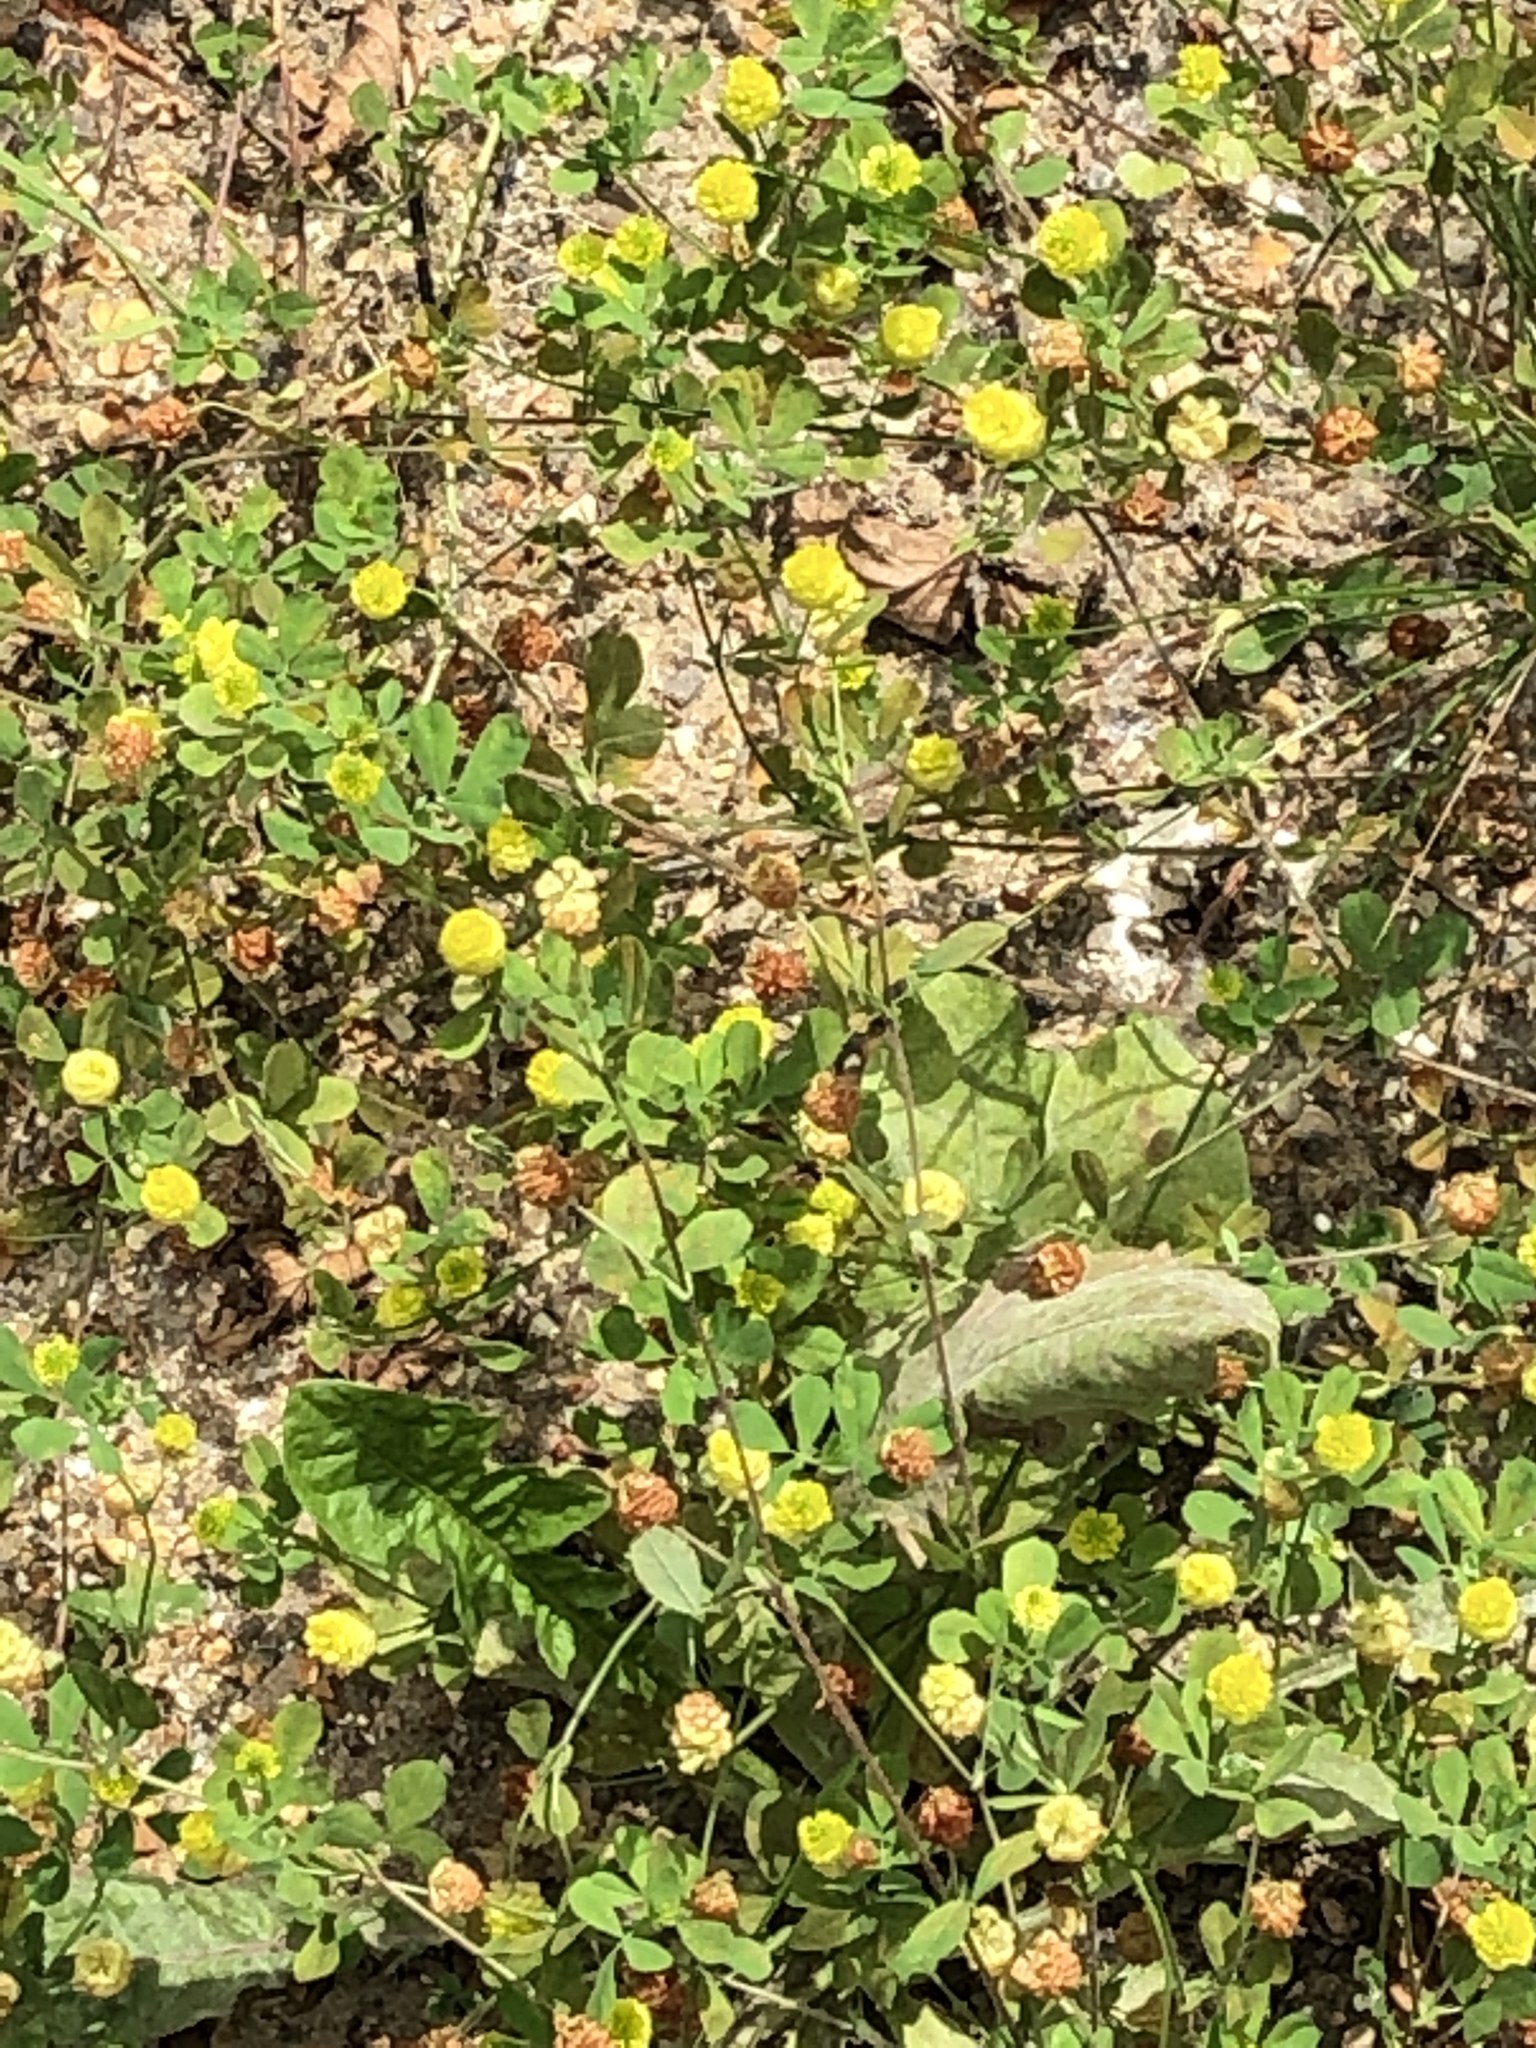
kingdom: Plantae
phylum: Tracheophyta
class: Magnoliopsida
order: Fabales
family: Fabaceae
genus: Trifolium
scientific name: Trifolium campestre
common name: Field clover
